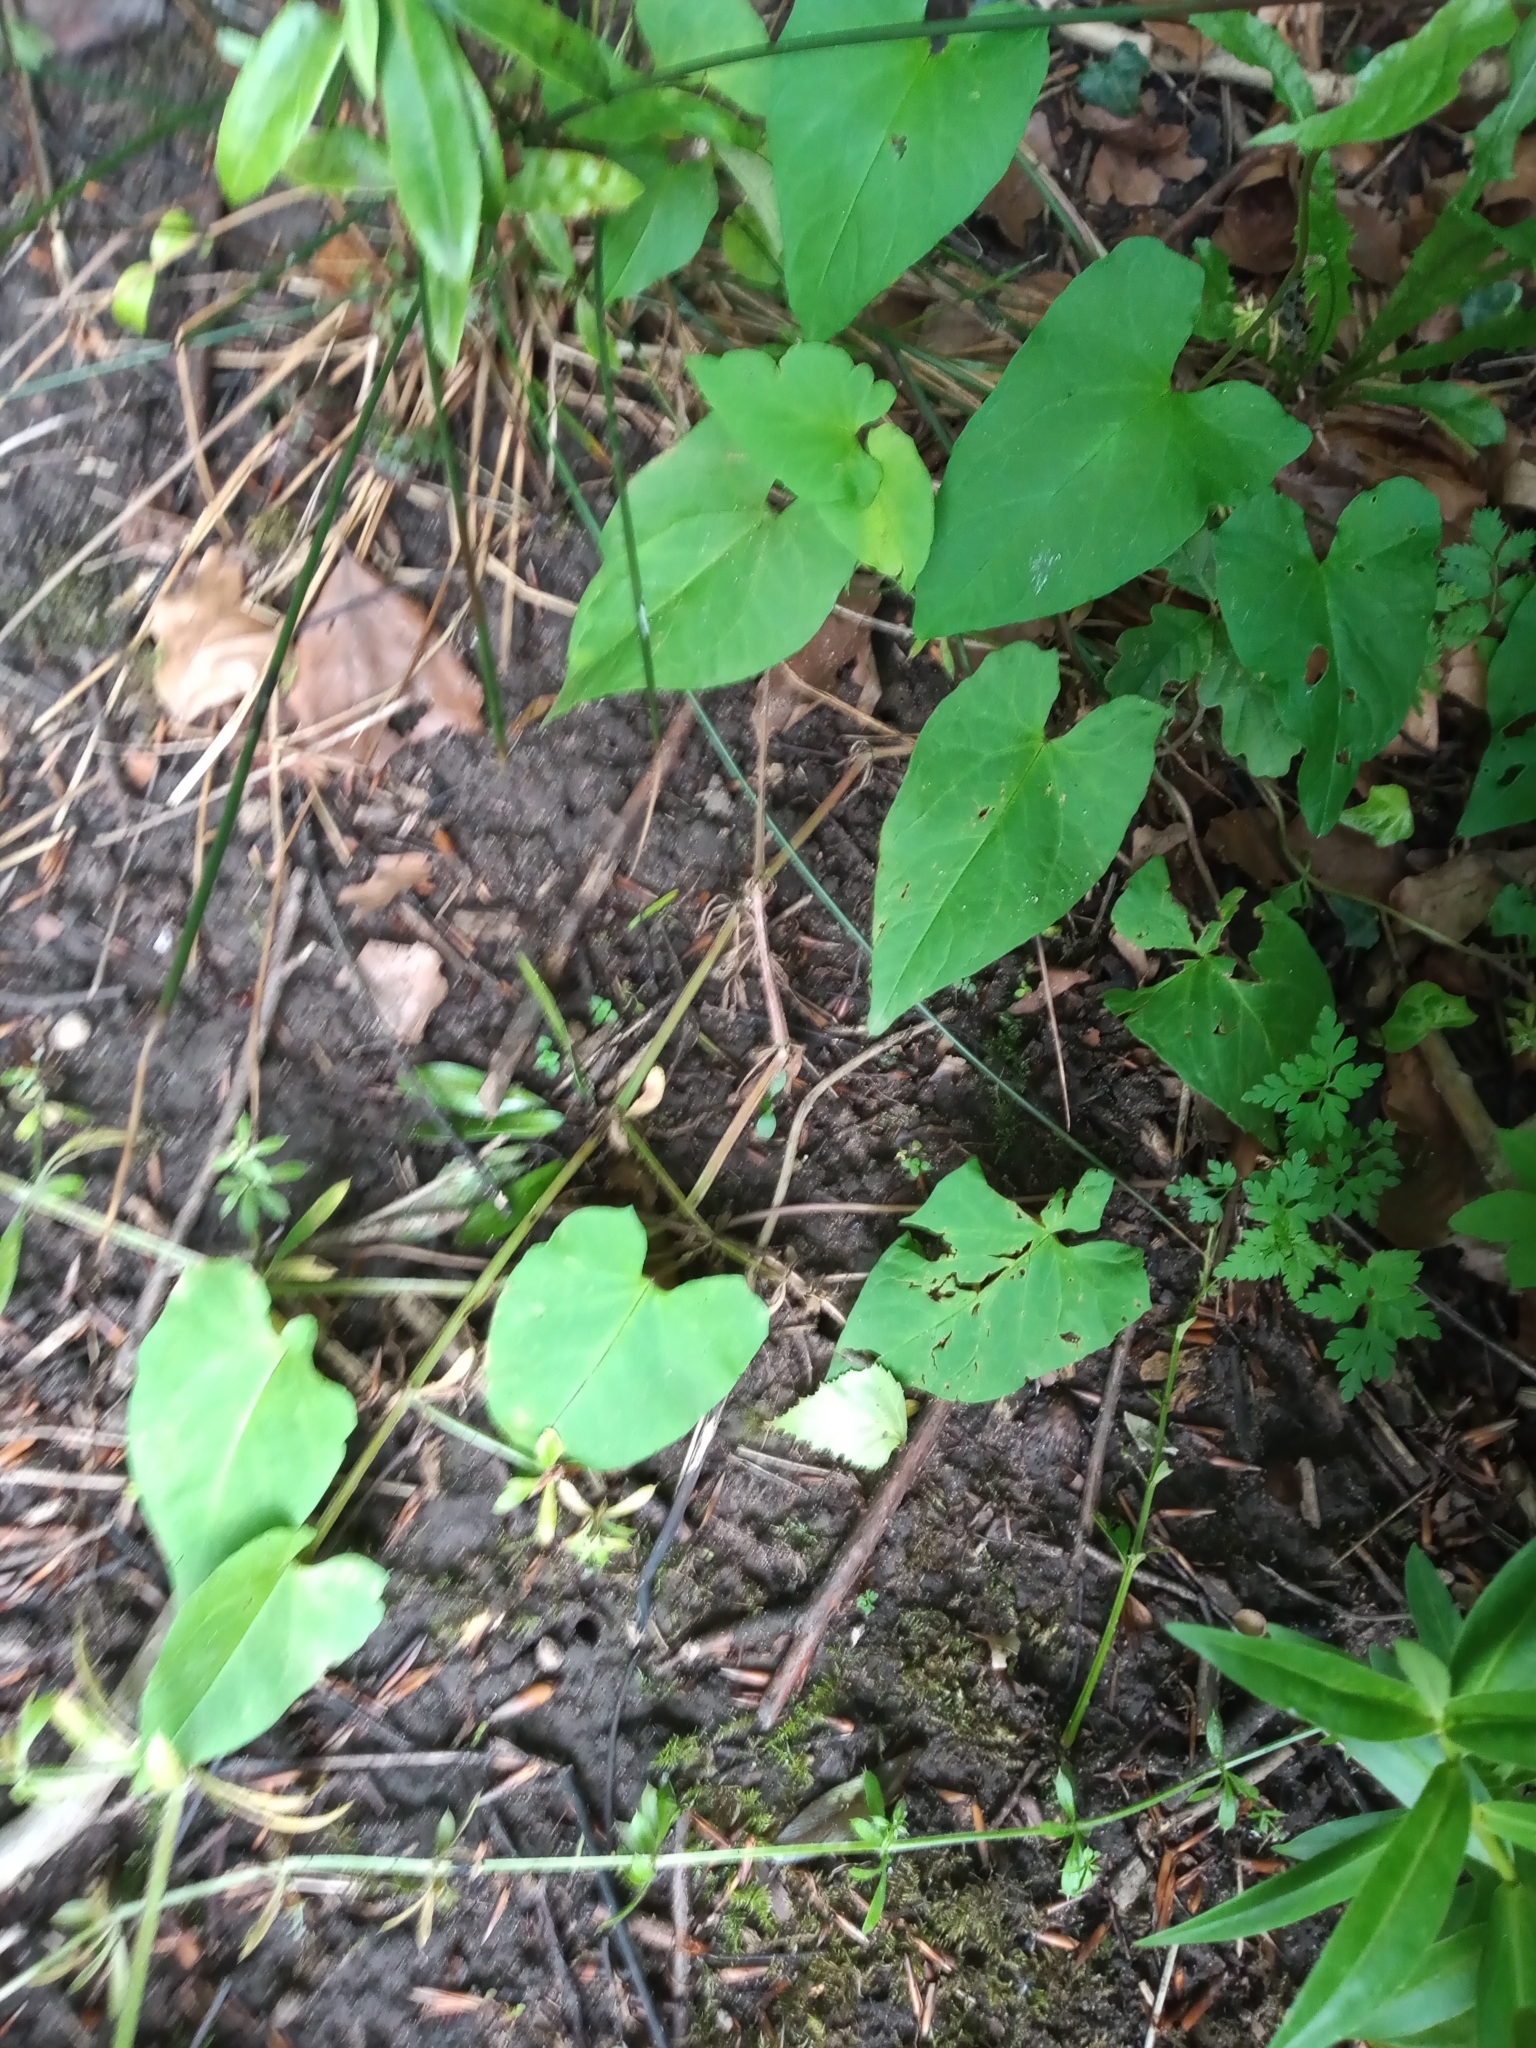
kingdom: Plantae
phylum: Tracheophyta
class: Magnoliopsida
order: Solanales
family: Convolvulaceae
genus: Calystegia
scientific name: Calystegia
